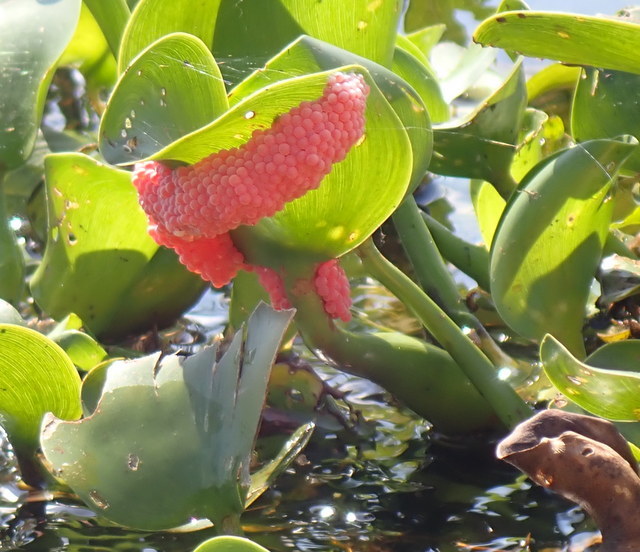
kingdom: Animalia
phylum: Mollusca
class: Gastropoda
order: Architaenioglossa
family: Ampullariidae
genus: Pomacea
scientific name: Pomacea maculata
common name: Giant applesnail
